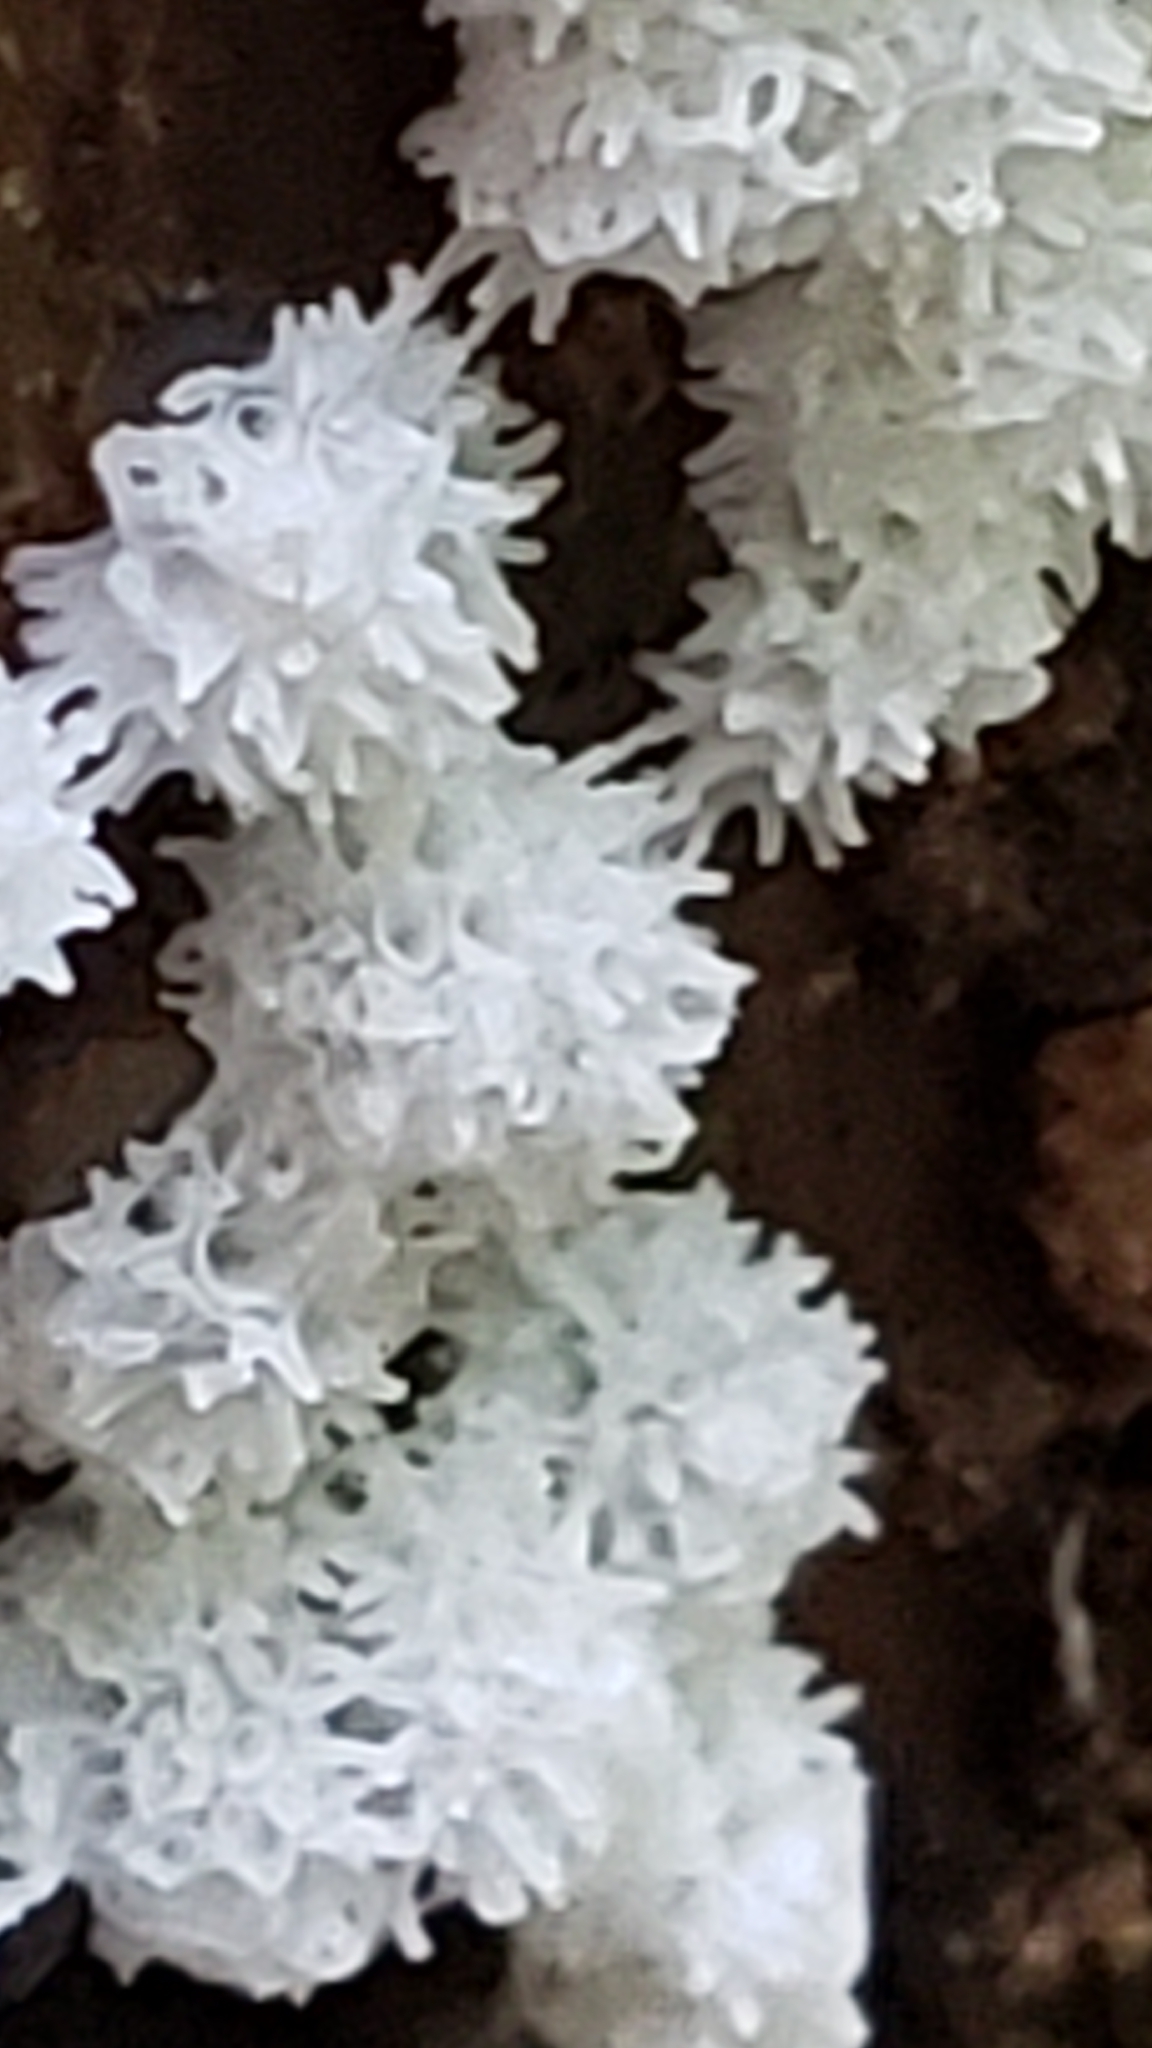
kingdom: Protozoa
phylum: Mycetozoa
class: Protosteliomycetes
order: Ceratiomyxales
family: Ceratiomyxaceae
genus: Ceratiomyxa
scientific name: Ceratiomyxa fruticulosa
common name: Honeycomb coral slime mold
